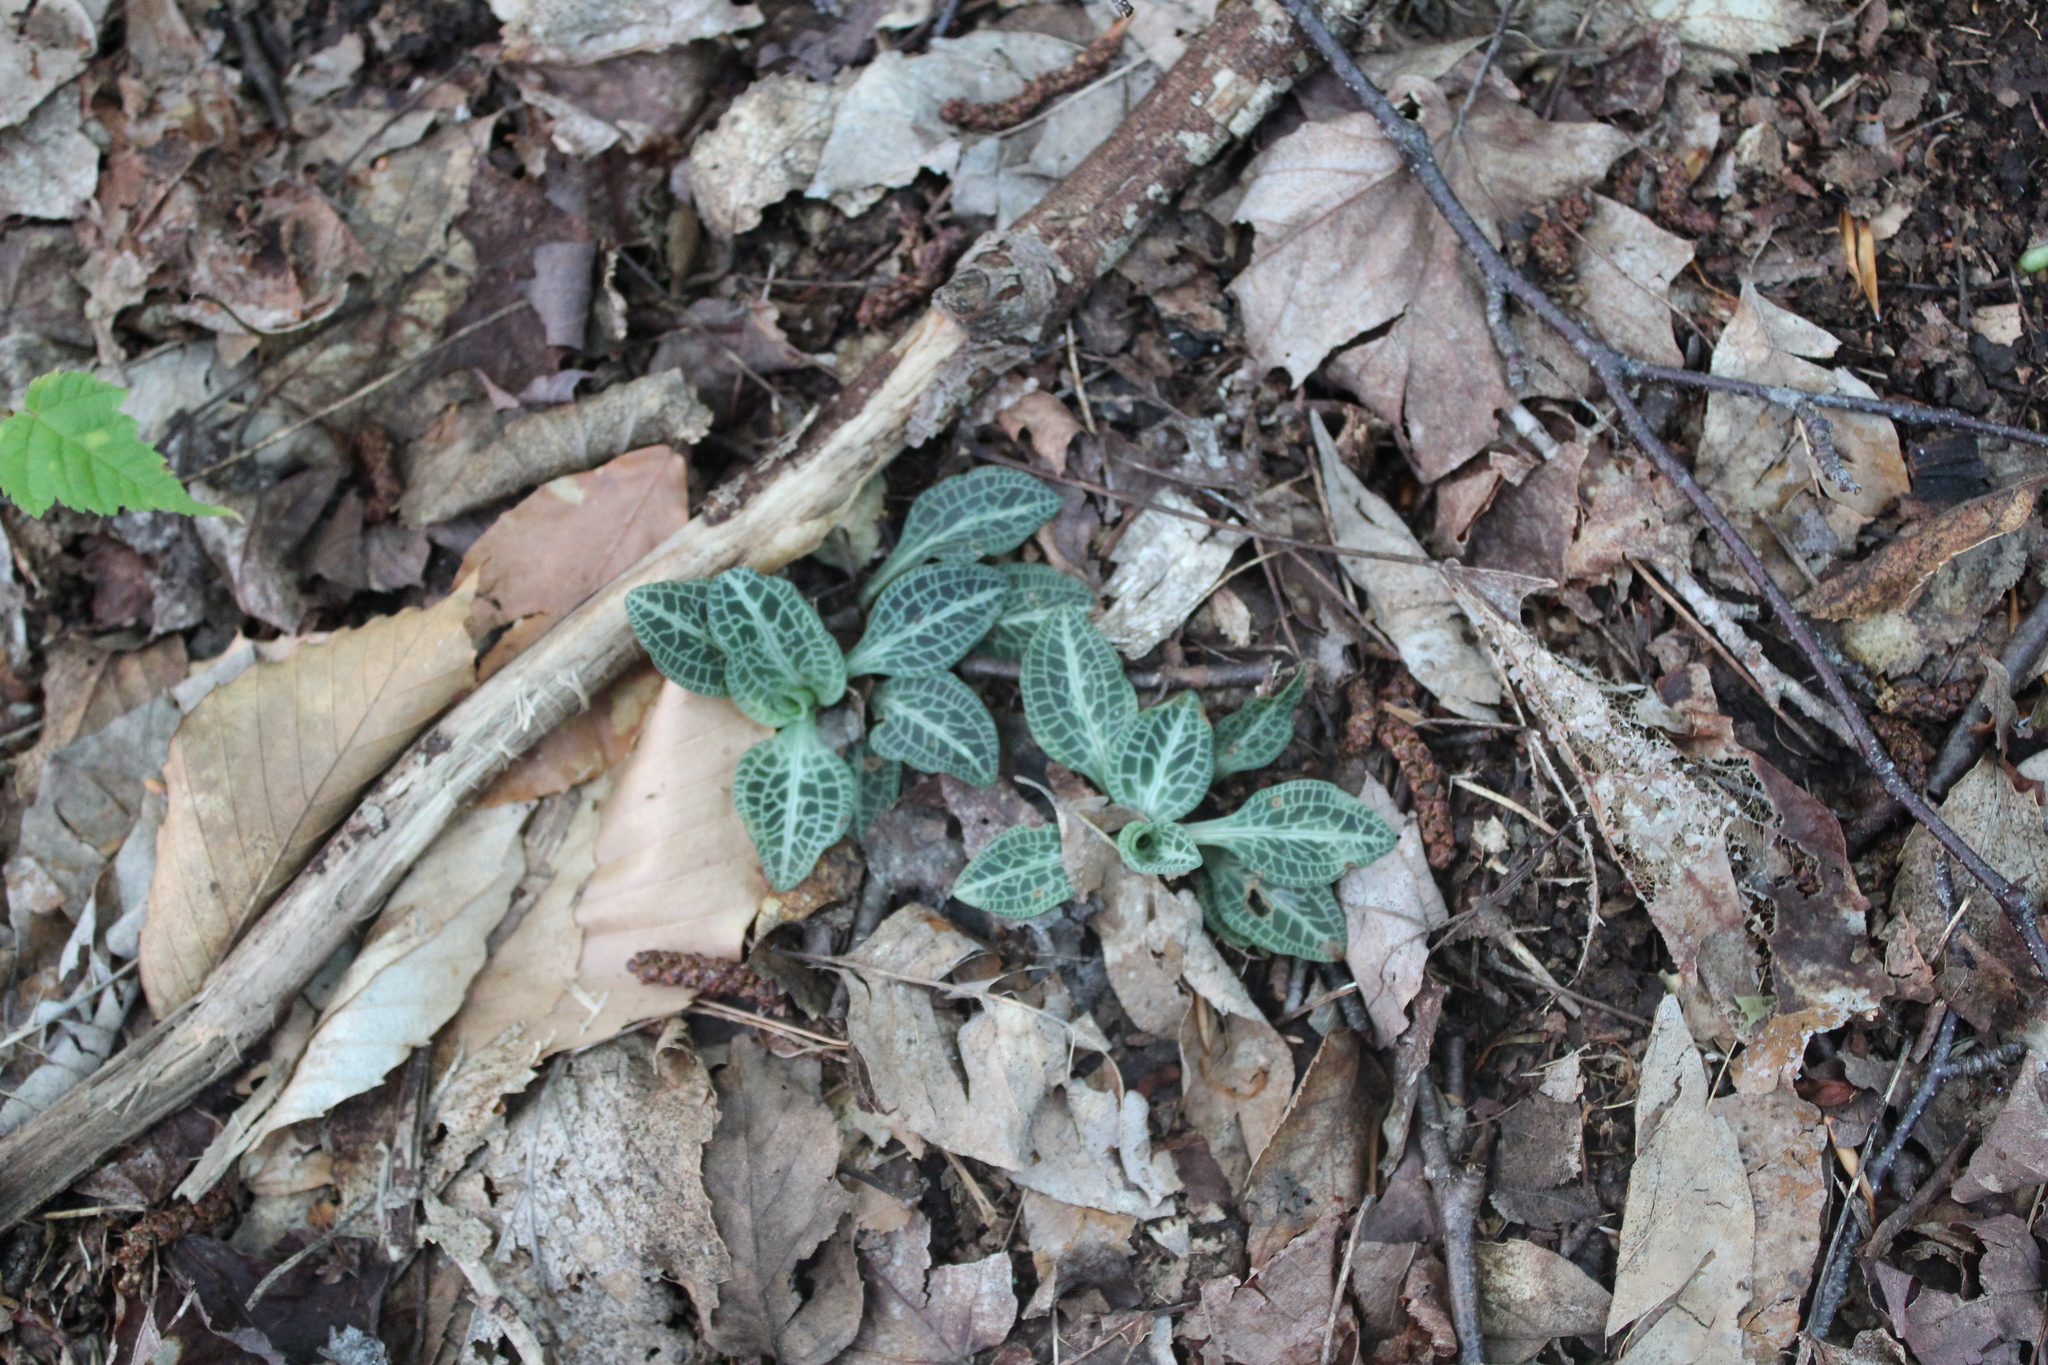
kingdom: Plantae
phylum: Tracheophyta
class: Liliopsida
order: Asparagales
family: Orchidaceae
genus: Goodyera
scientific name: Goodyera pubescens
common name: Downy rattlesnake-plantain
